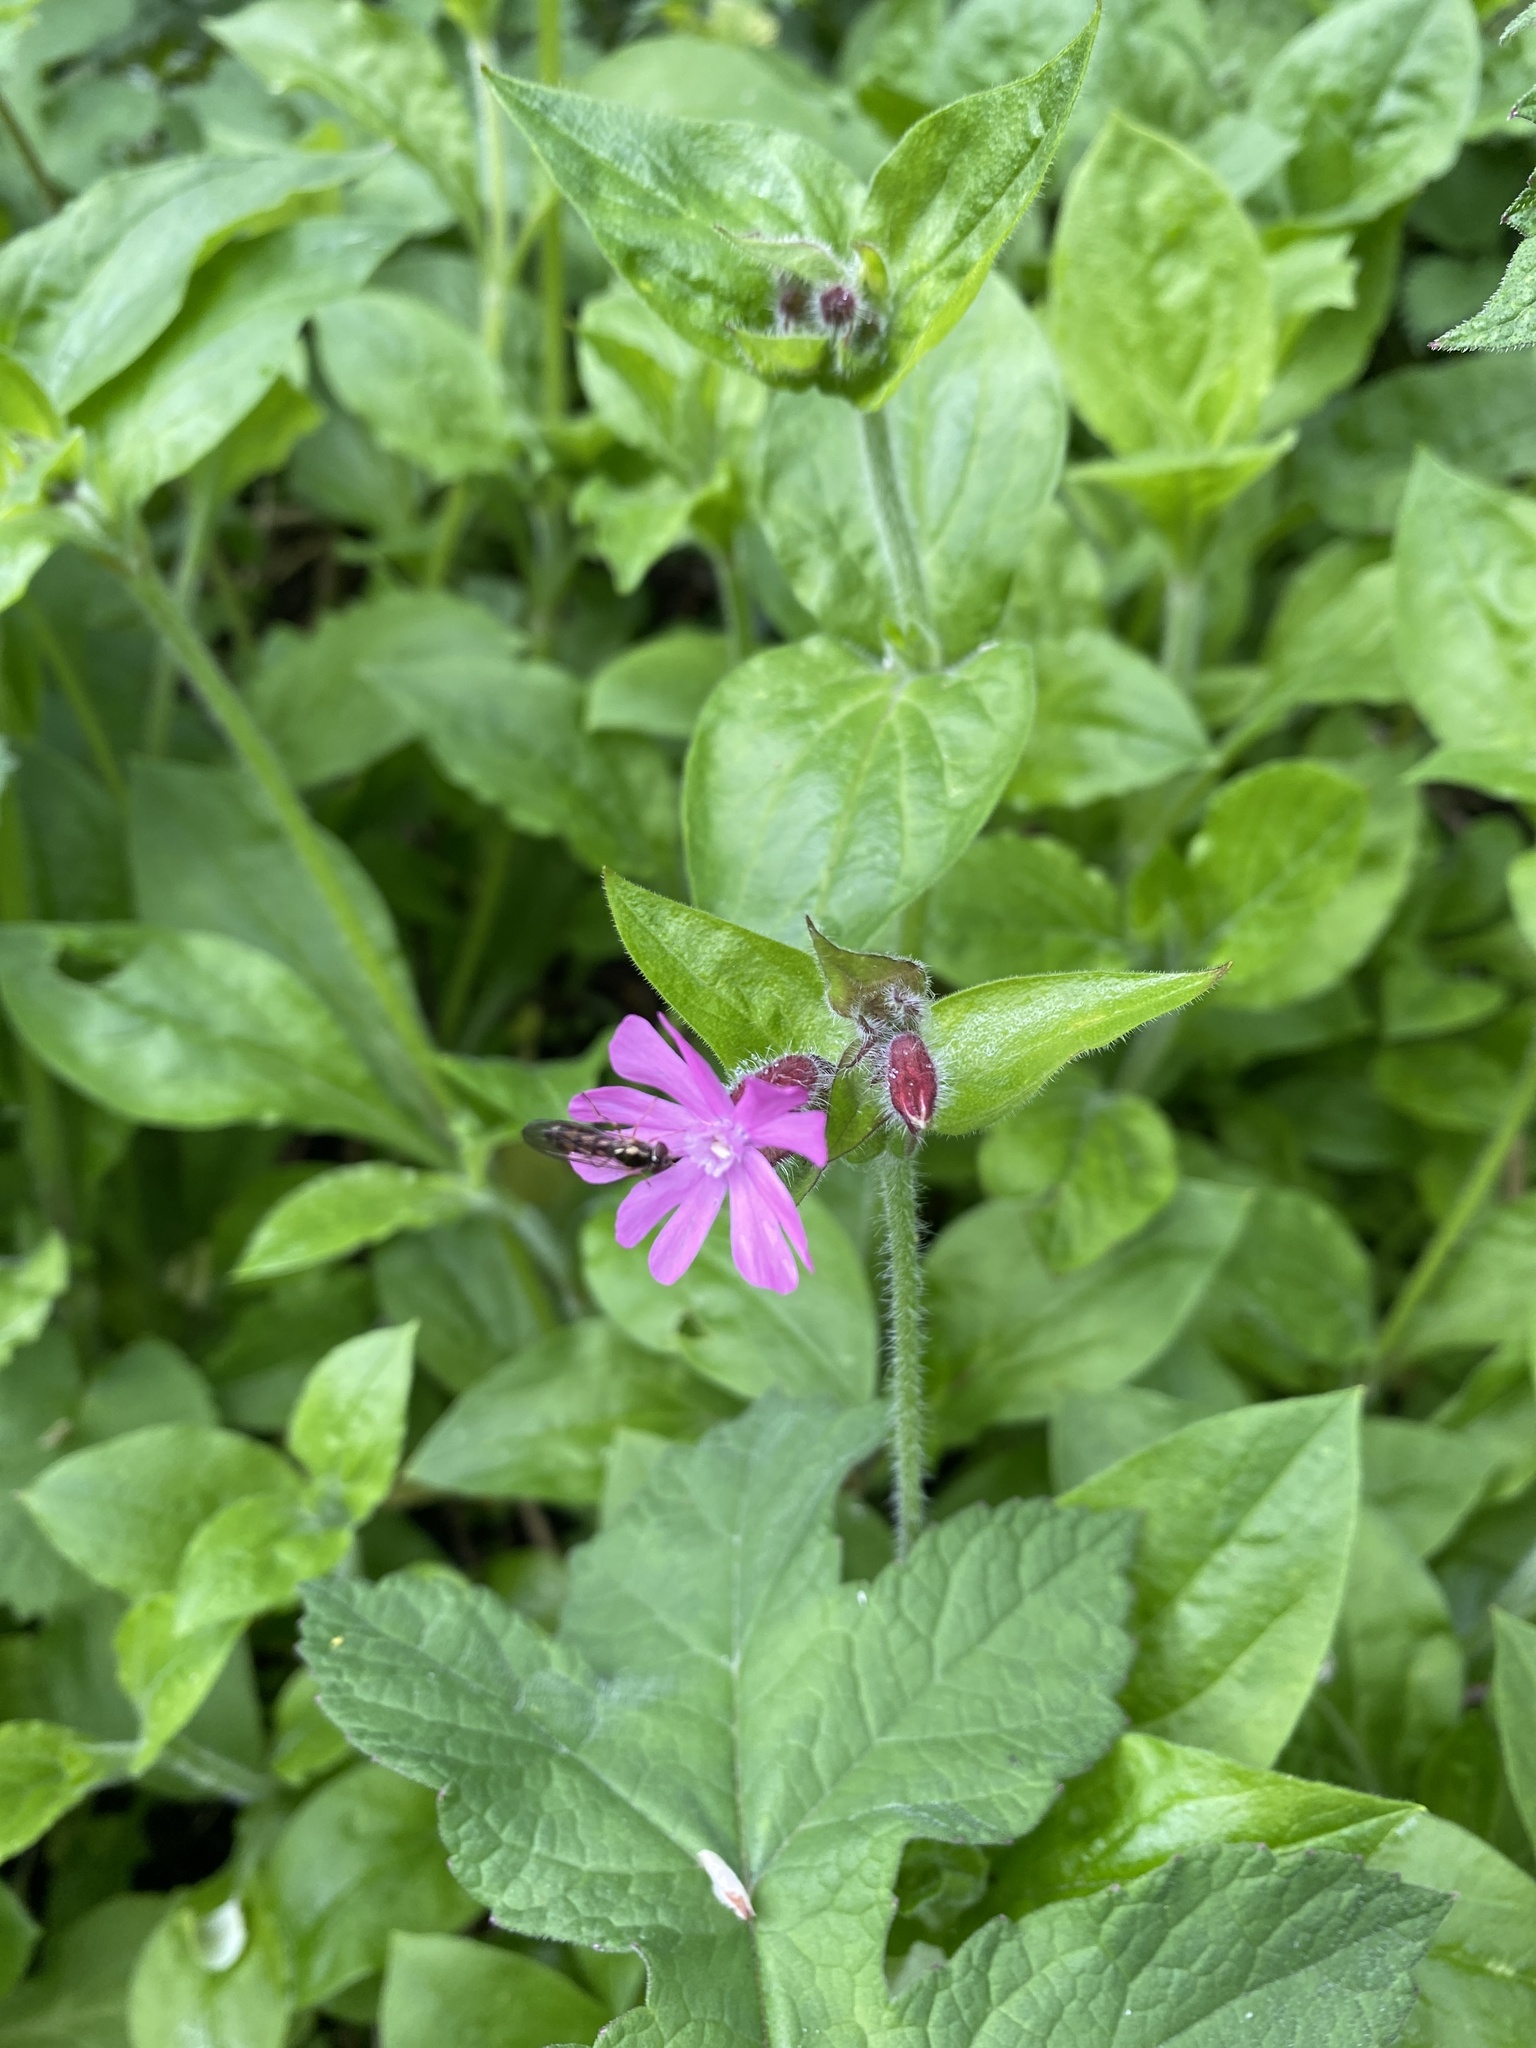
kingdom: Plantae
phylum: Tracheophyta
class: Magnoliopsida
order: Caryophyllales
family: Caryophyllaceae
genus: Silene
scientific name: Silene dioica
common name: Red campion
